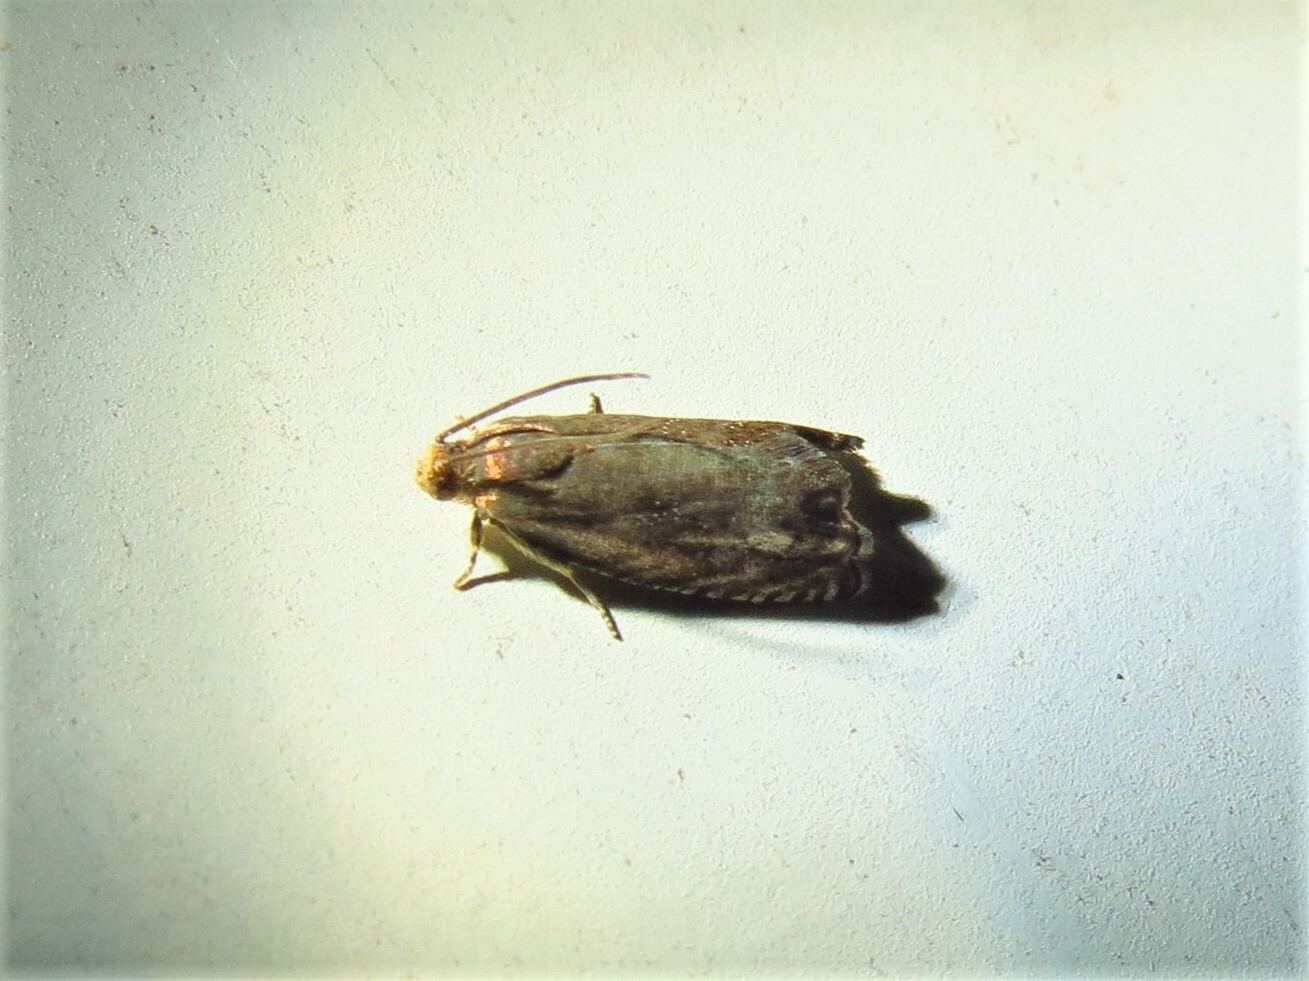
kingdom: Animalia
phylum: Arthropoda
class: Insecta
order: Lepidoptera
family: Tortricidae
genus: Cydia
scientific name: Cydia caryana
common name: Hickory shuckworm moth
